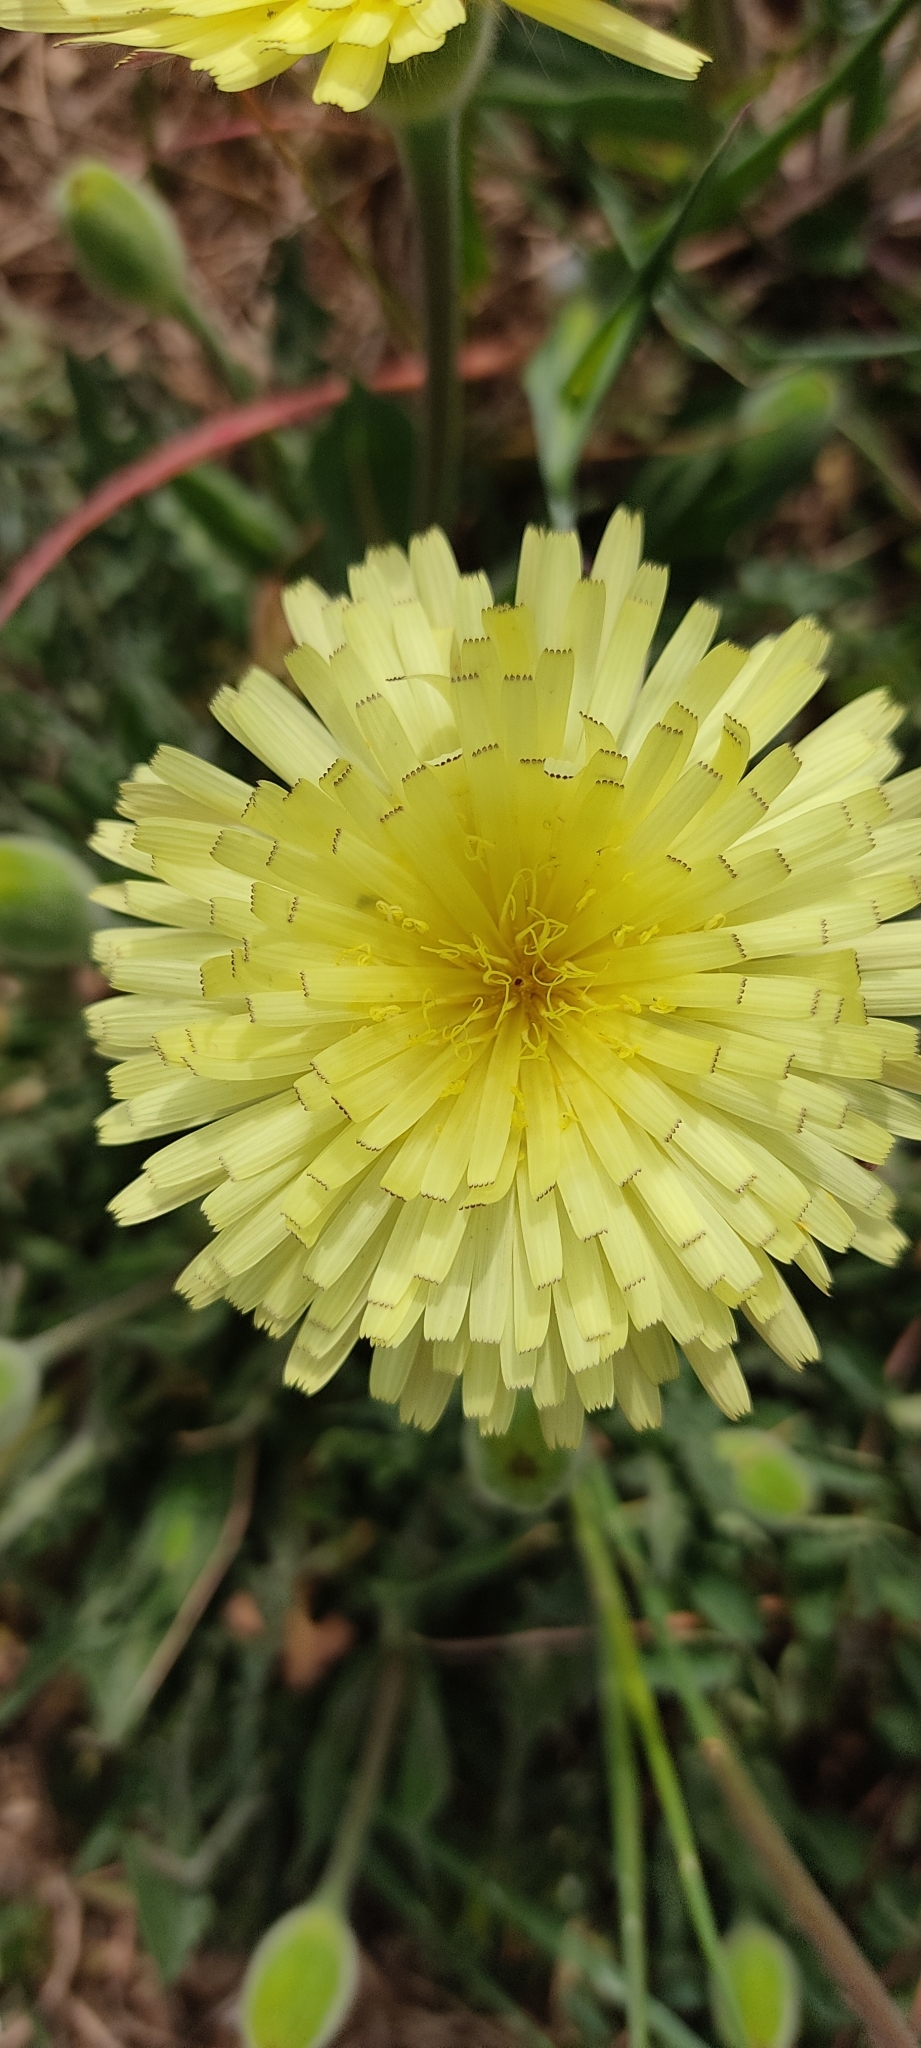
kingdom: Plantae
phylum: Tracheophyta
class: Magnoliopsida
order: Asterales
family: Asteraceae
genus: Urospermum
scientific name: Urospermum dalechampii
